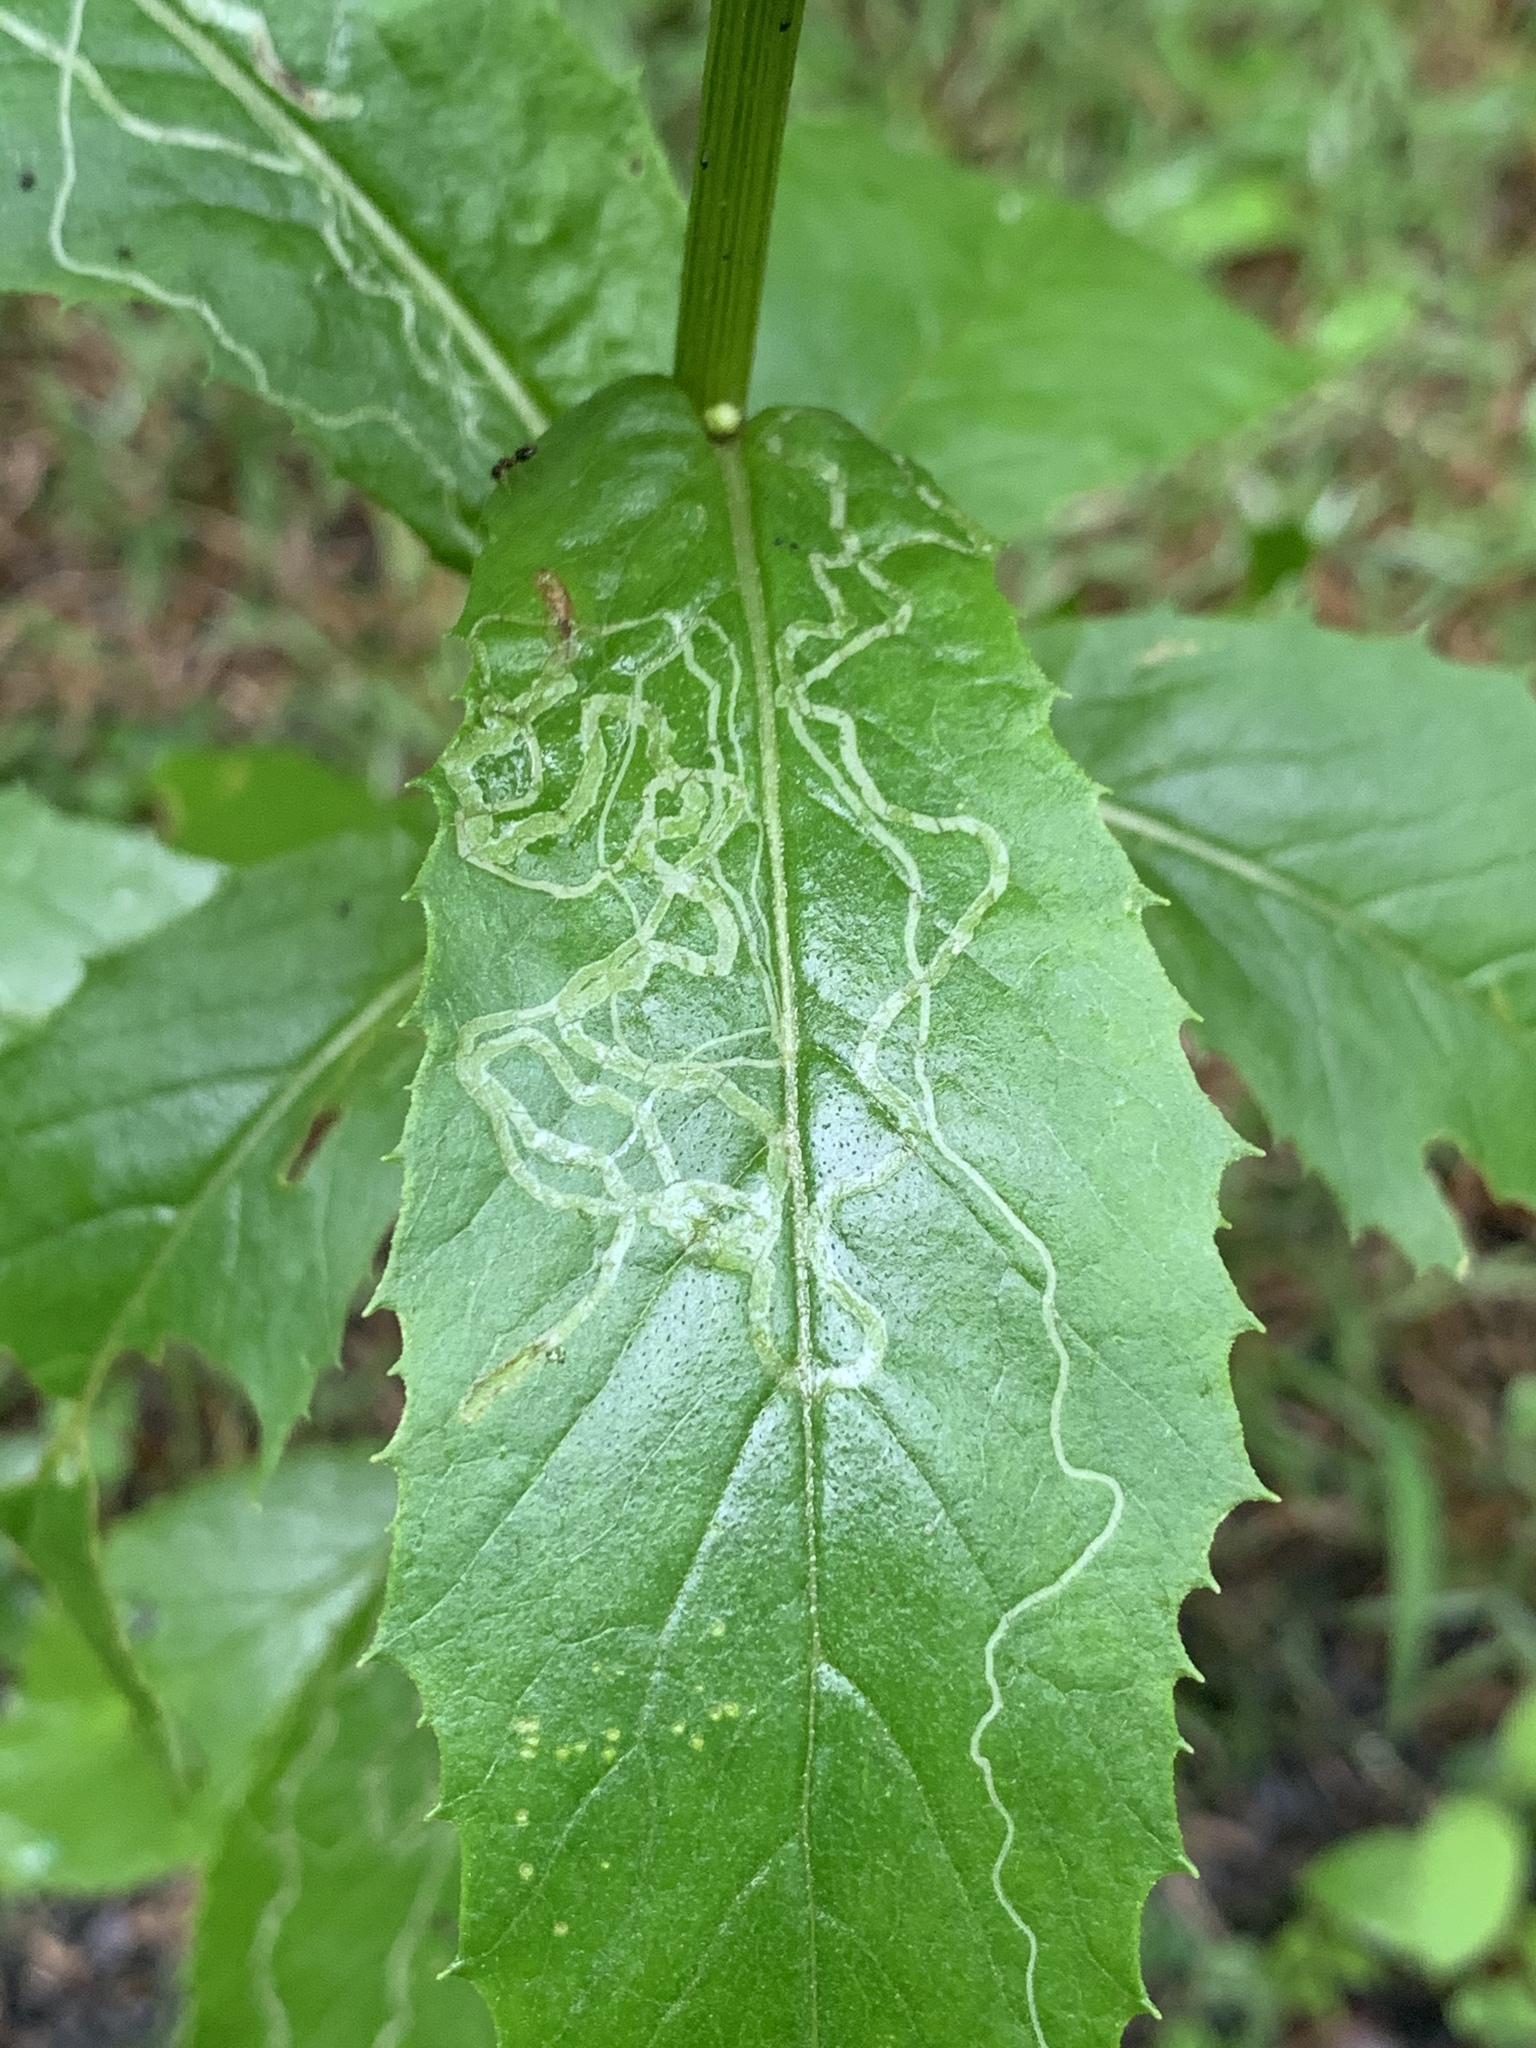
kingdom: Animalia
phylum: Arthropoda
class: Insecta
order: Lepidoptera
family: Gracillariidae
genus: Phyllocnistis
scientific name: Phyllocnistis insignis
